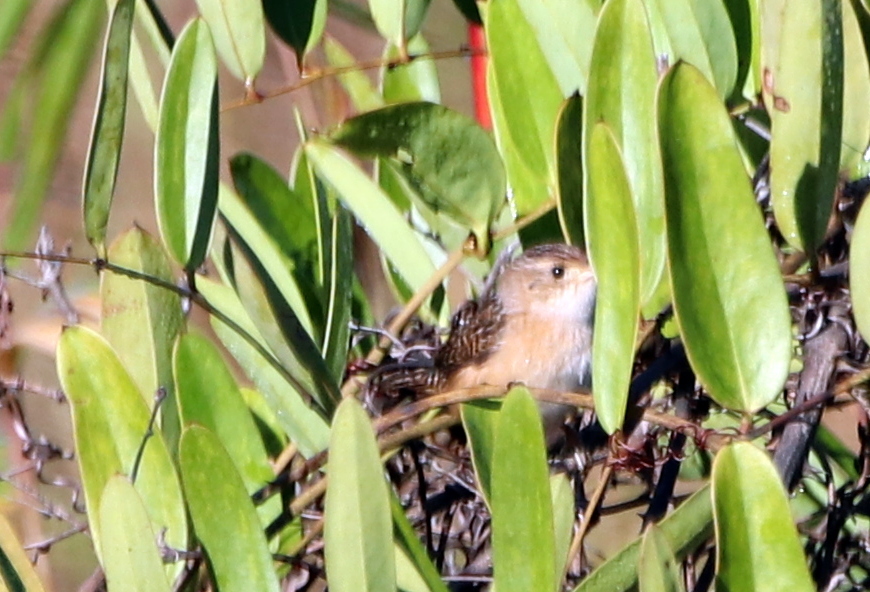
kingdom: Animalia
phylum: Chordata
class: Aves
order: Passeriformes
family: Troglodytidae
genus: Cistothorus
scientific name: Cistothorus platensis
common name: Sedge wren
